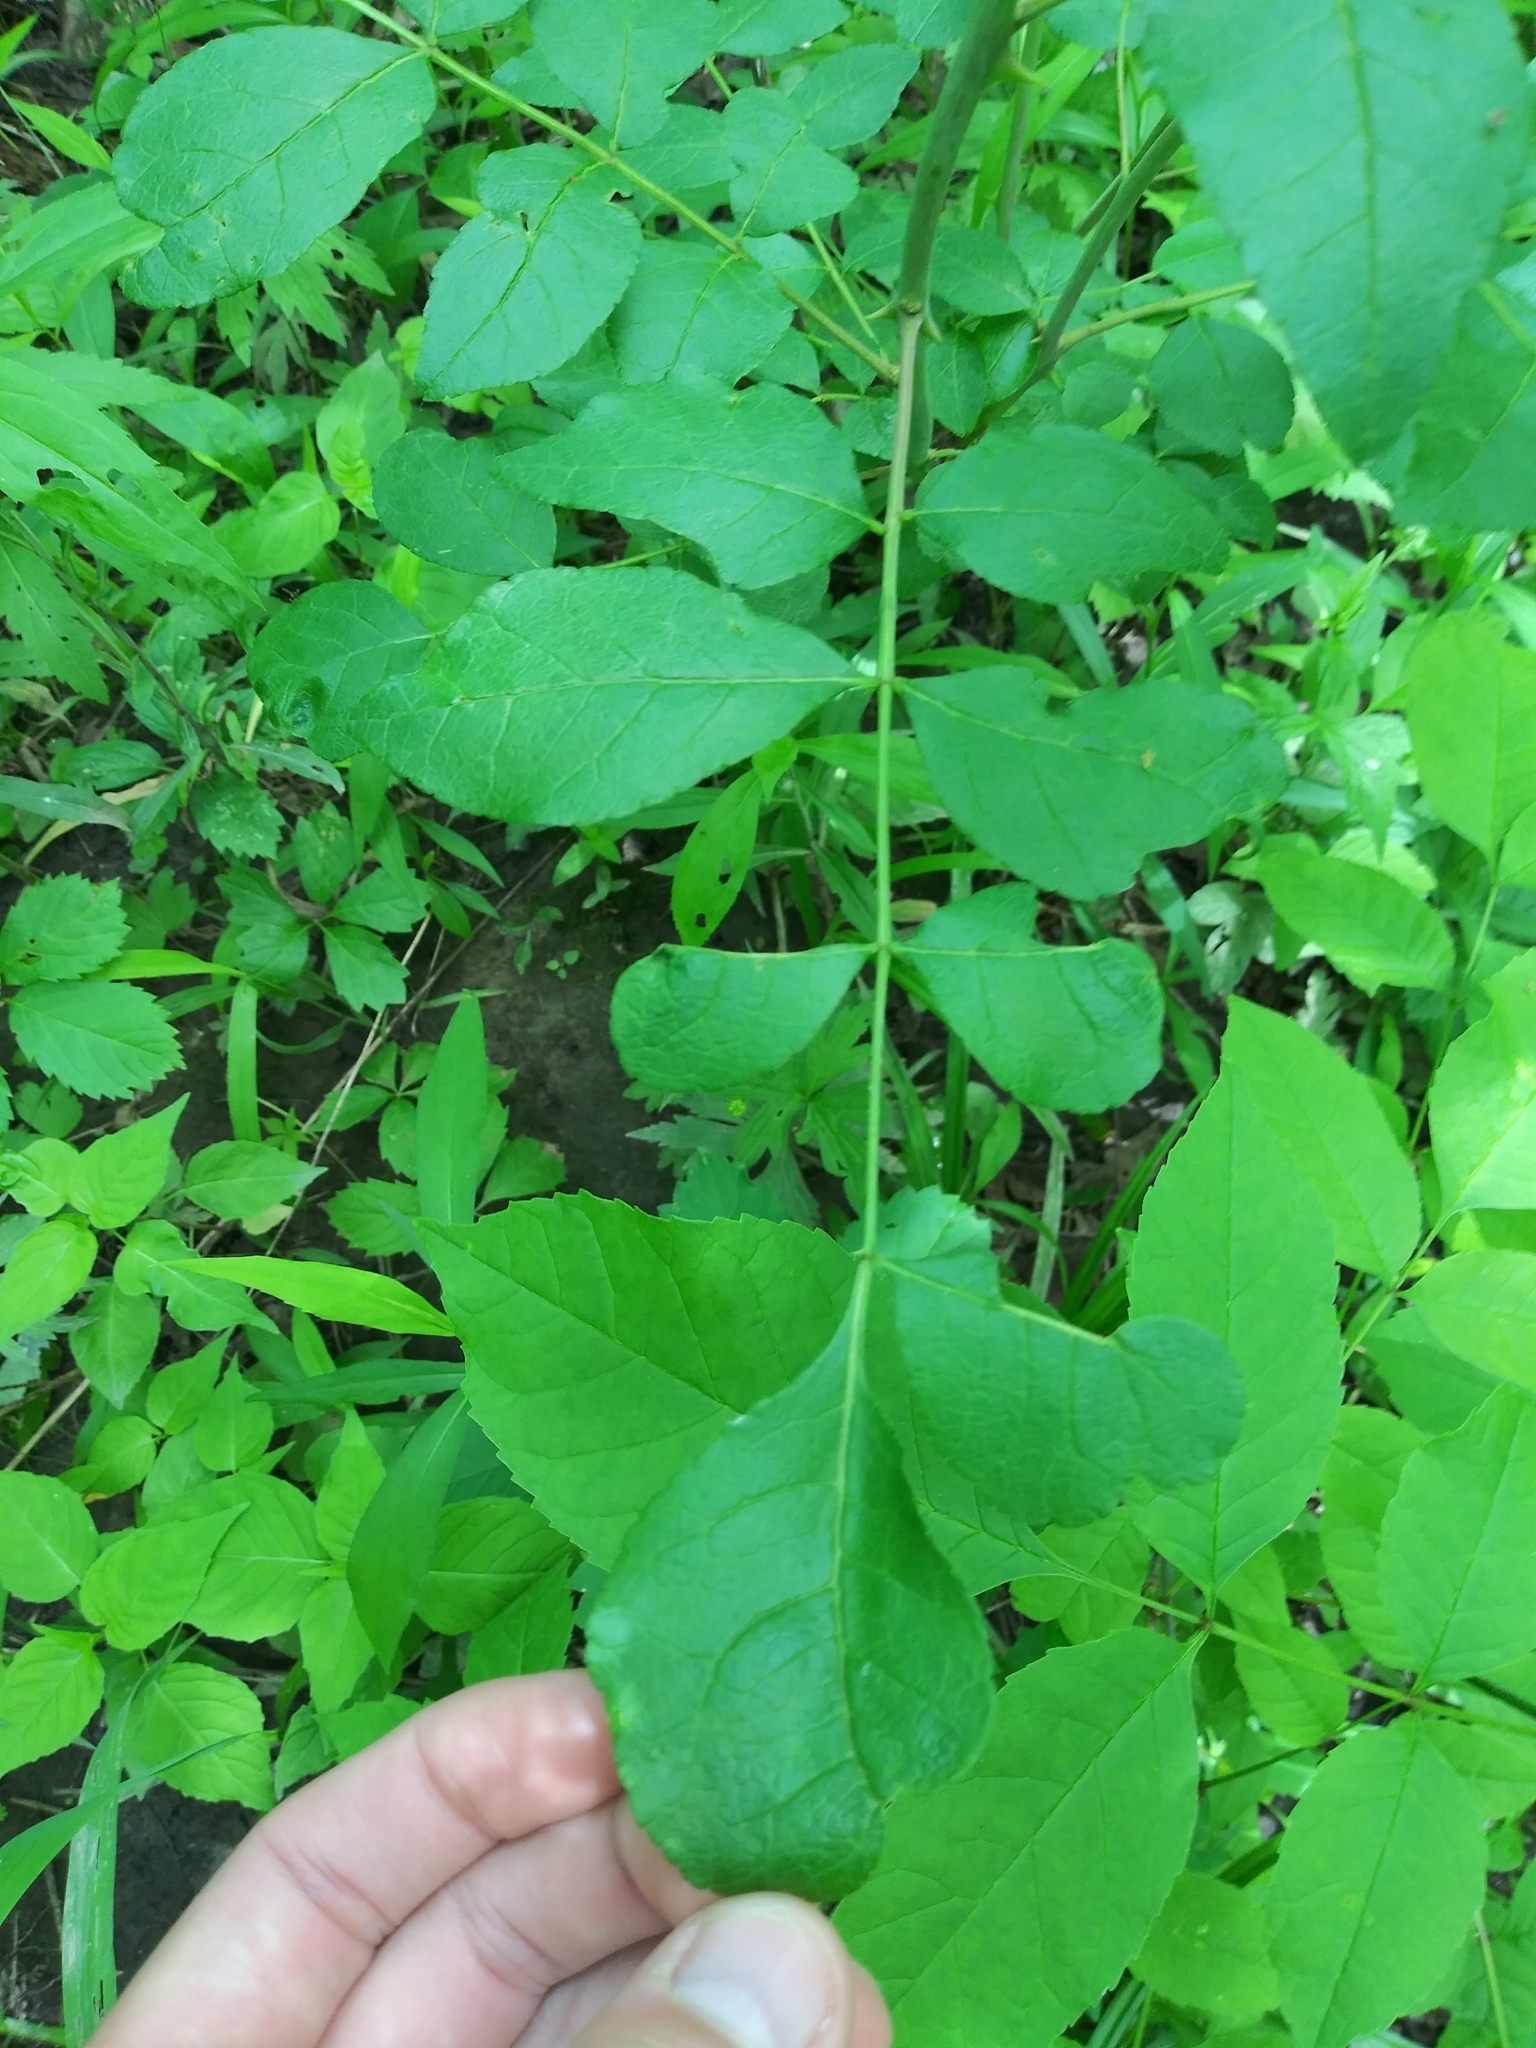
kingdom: Plantae
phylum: Tracheophyta
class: Magnoliopsida
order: Sapindales
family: Rutaceae
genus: Zanthoxylum
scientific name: Zanthoxylum americanum
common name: Northern prickly-ash
